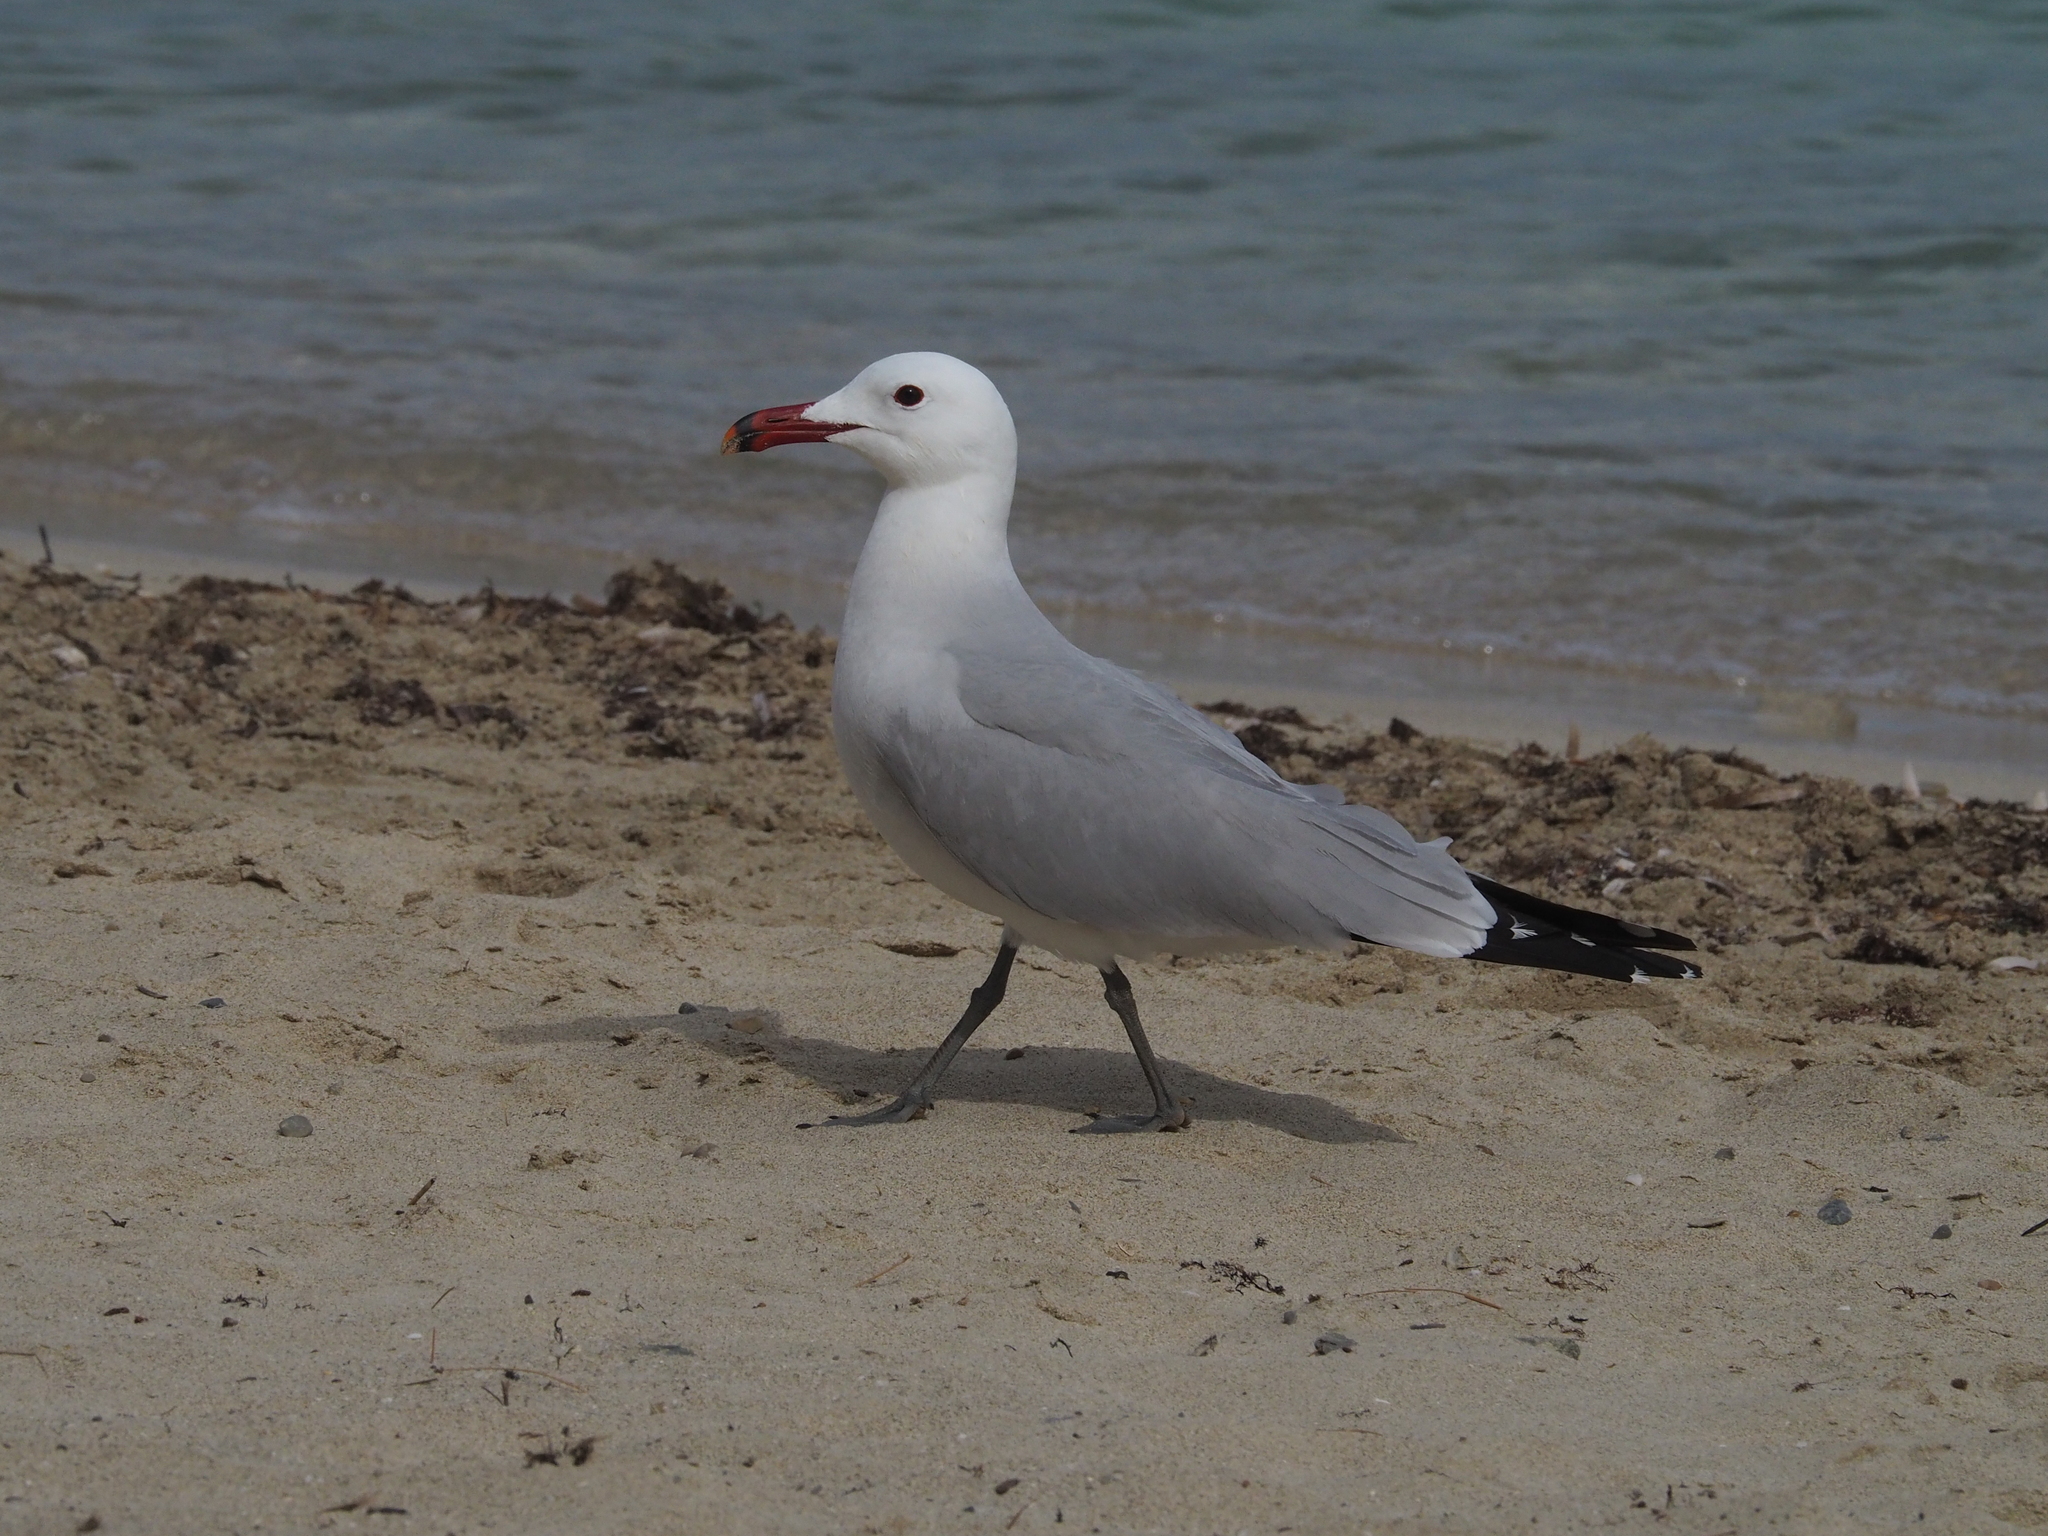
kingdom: Animalia
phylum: Chordata
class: Aves
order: Charadriiformes
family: Laridae
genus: Ichthyaetus
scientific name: Ichthyaetus audouinii
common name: Audouin's gull
